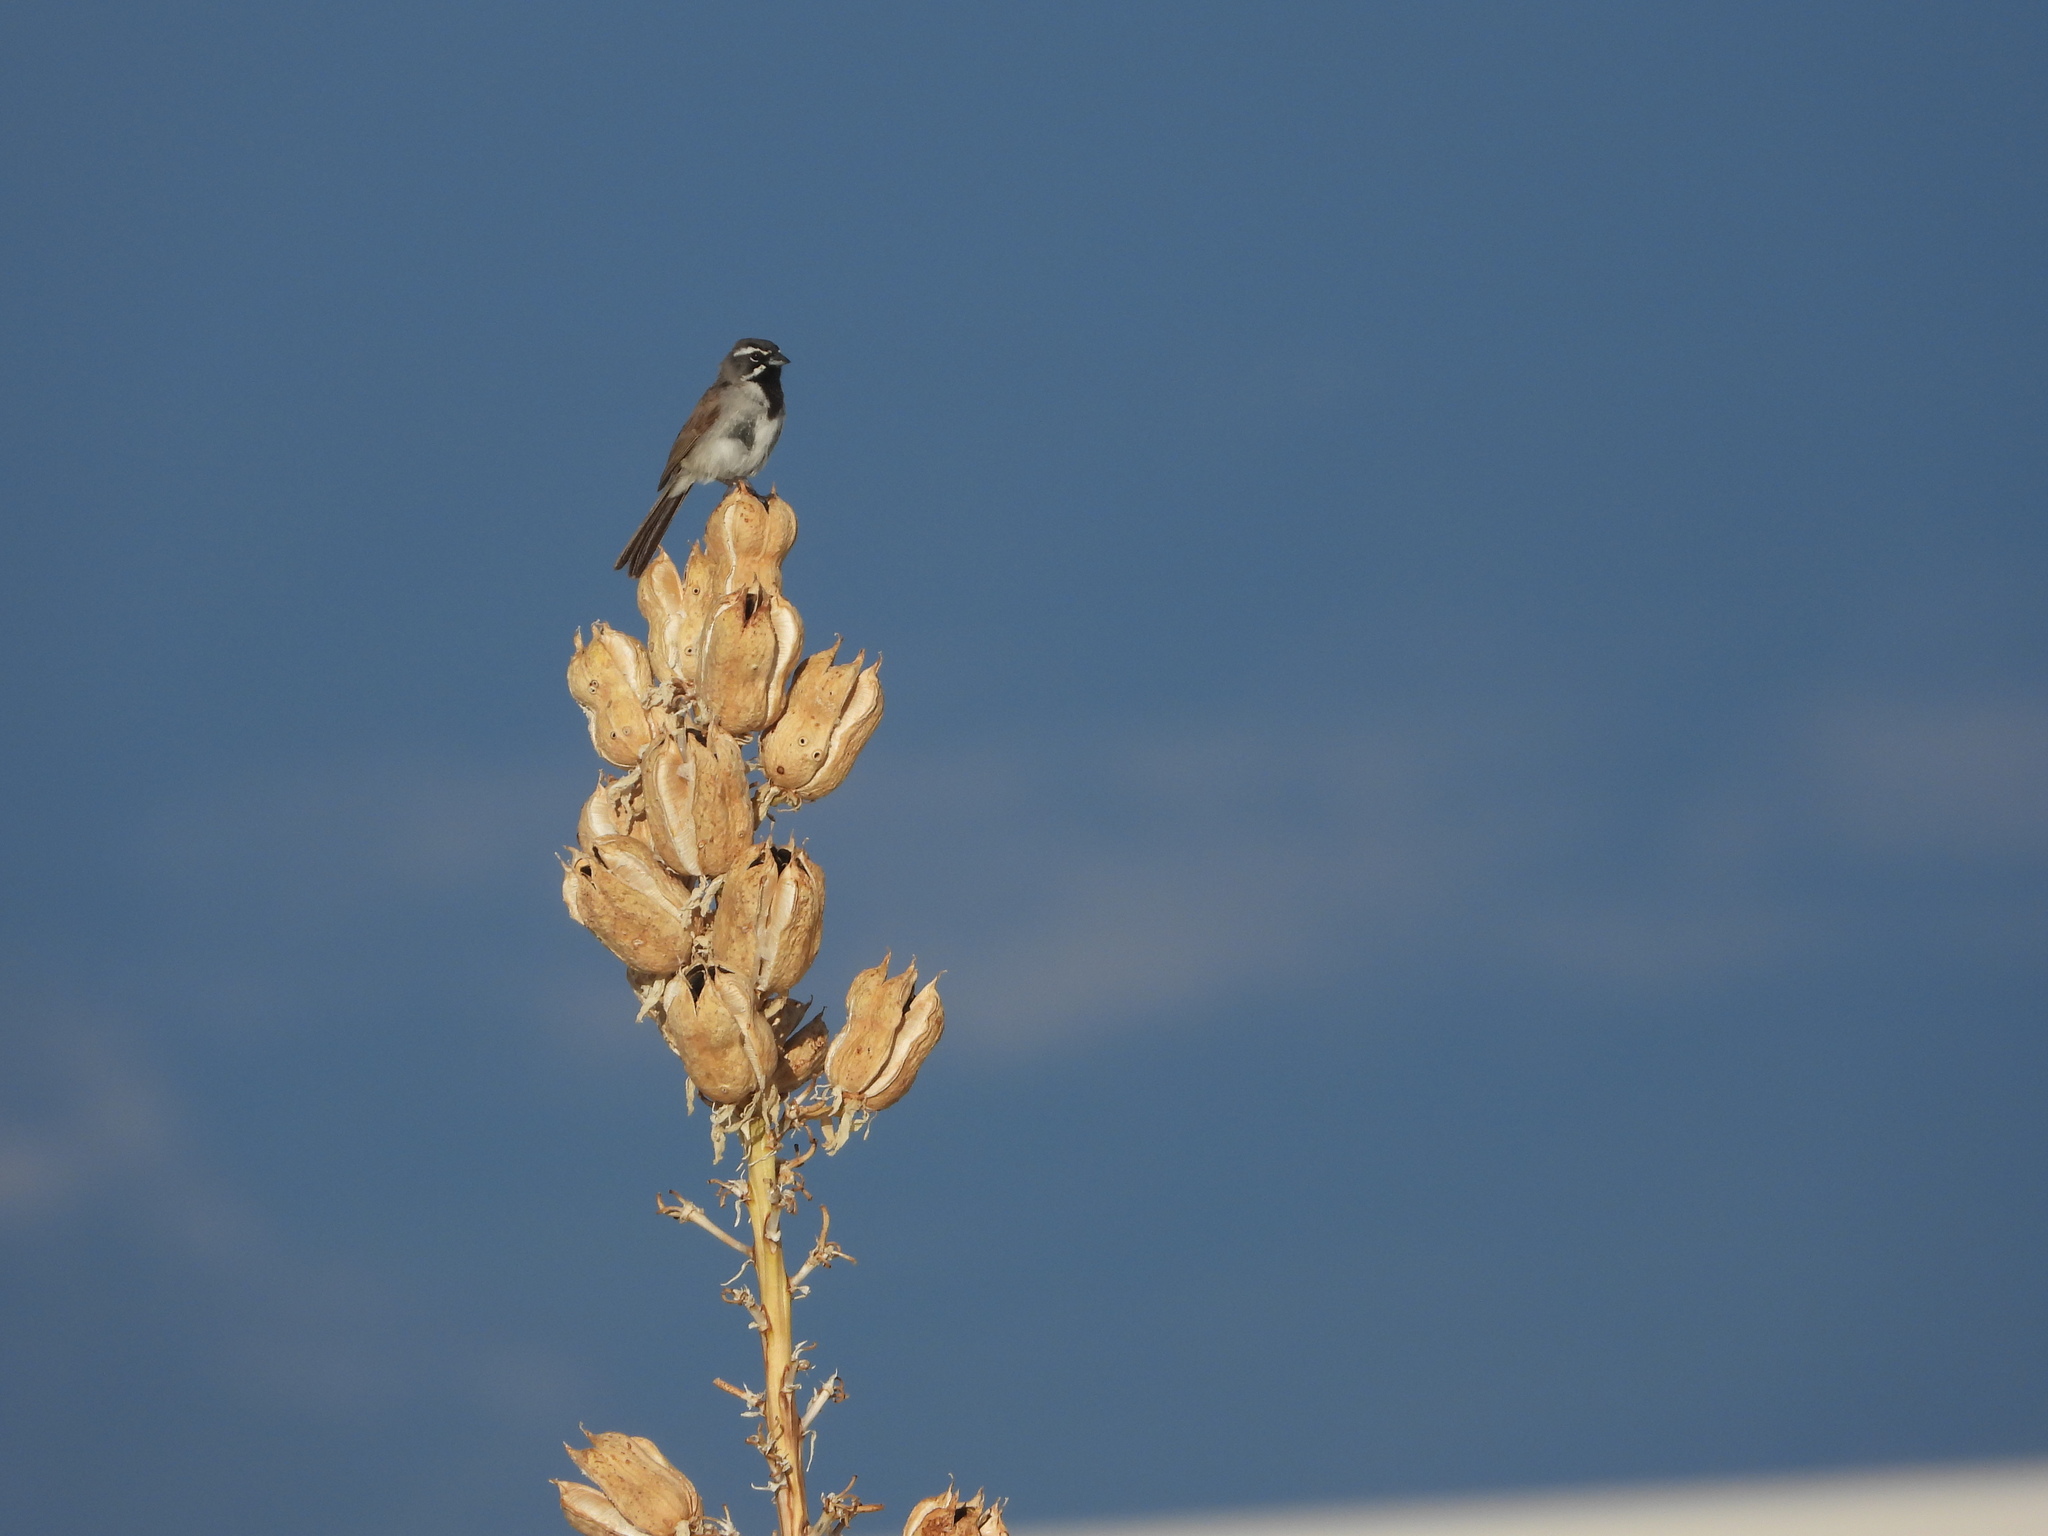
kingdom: Animalia
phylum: Chordata
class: Aves
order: Passeriformes
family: Passerellidae
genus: Amphispiza
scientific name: Amphispiza bilineata
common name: Black-throated sparrow
